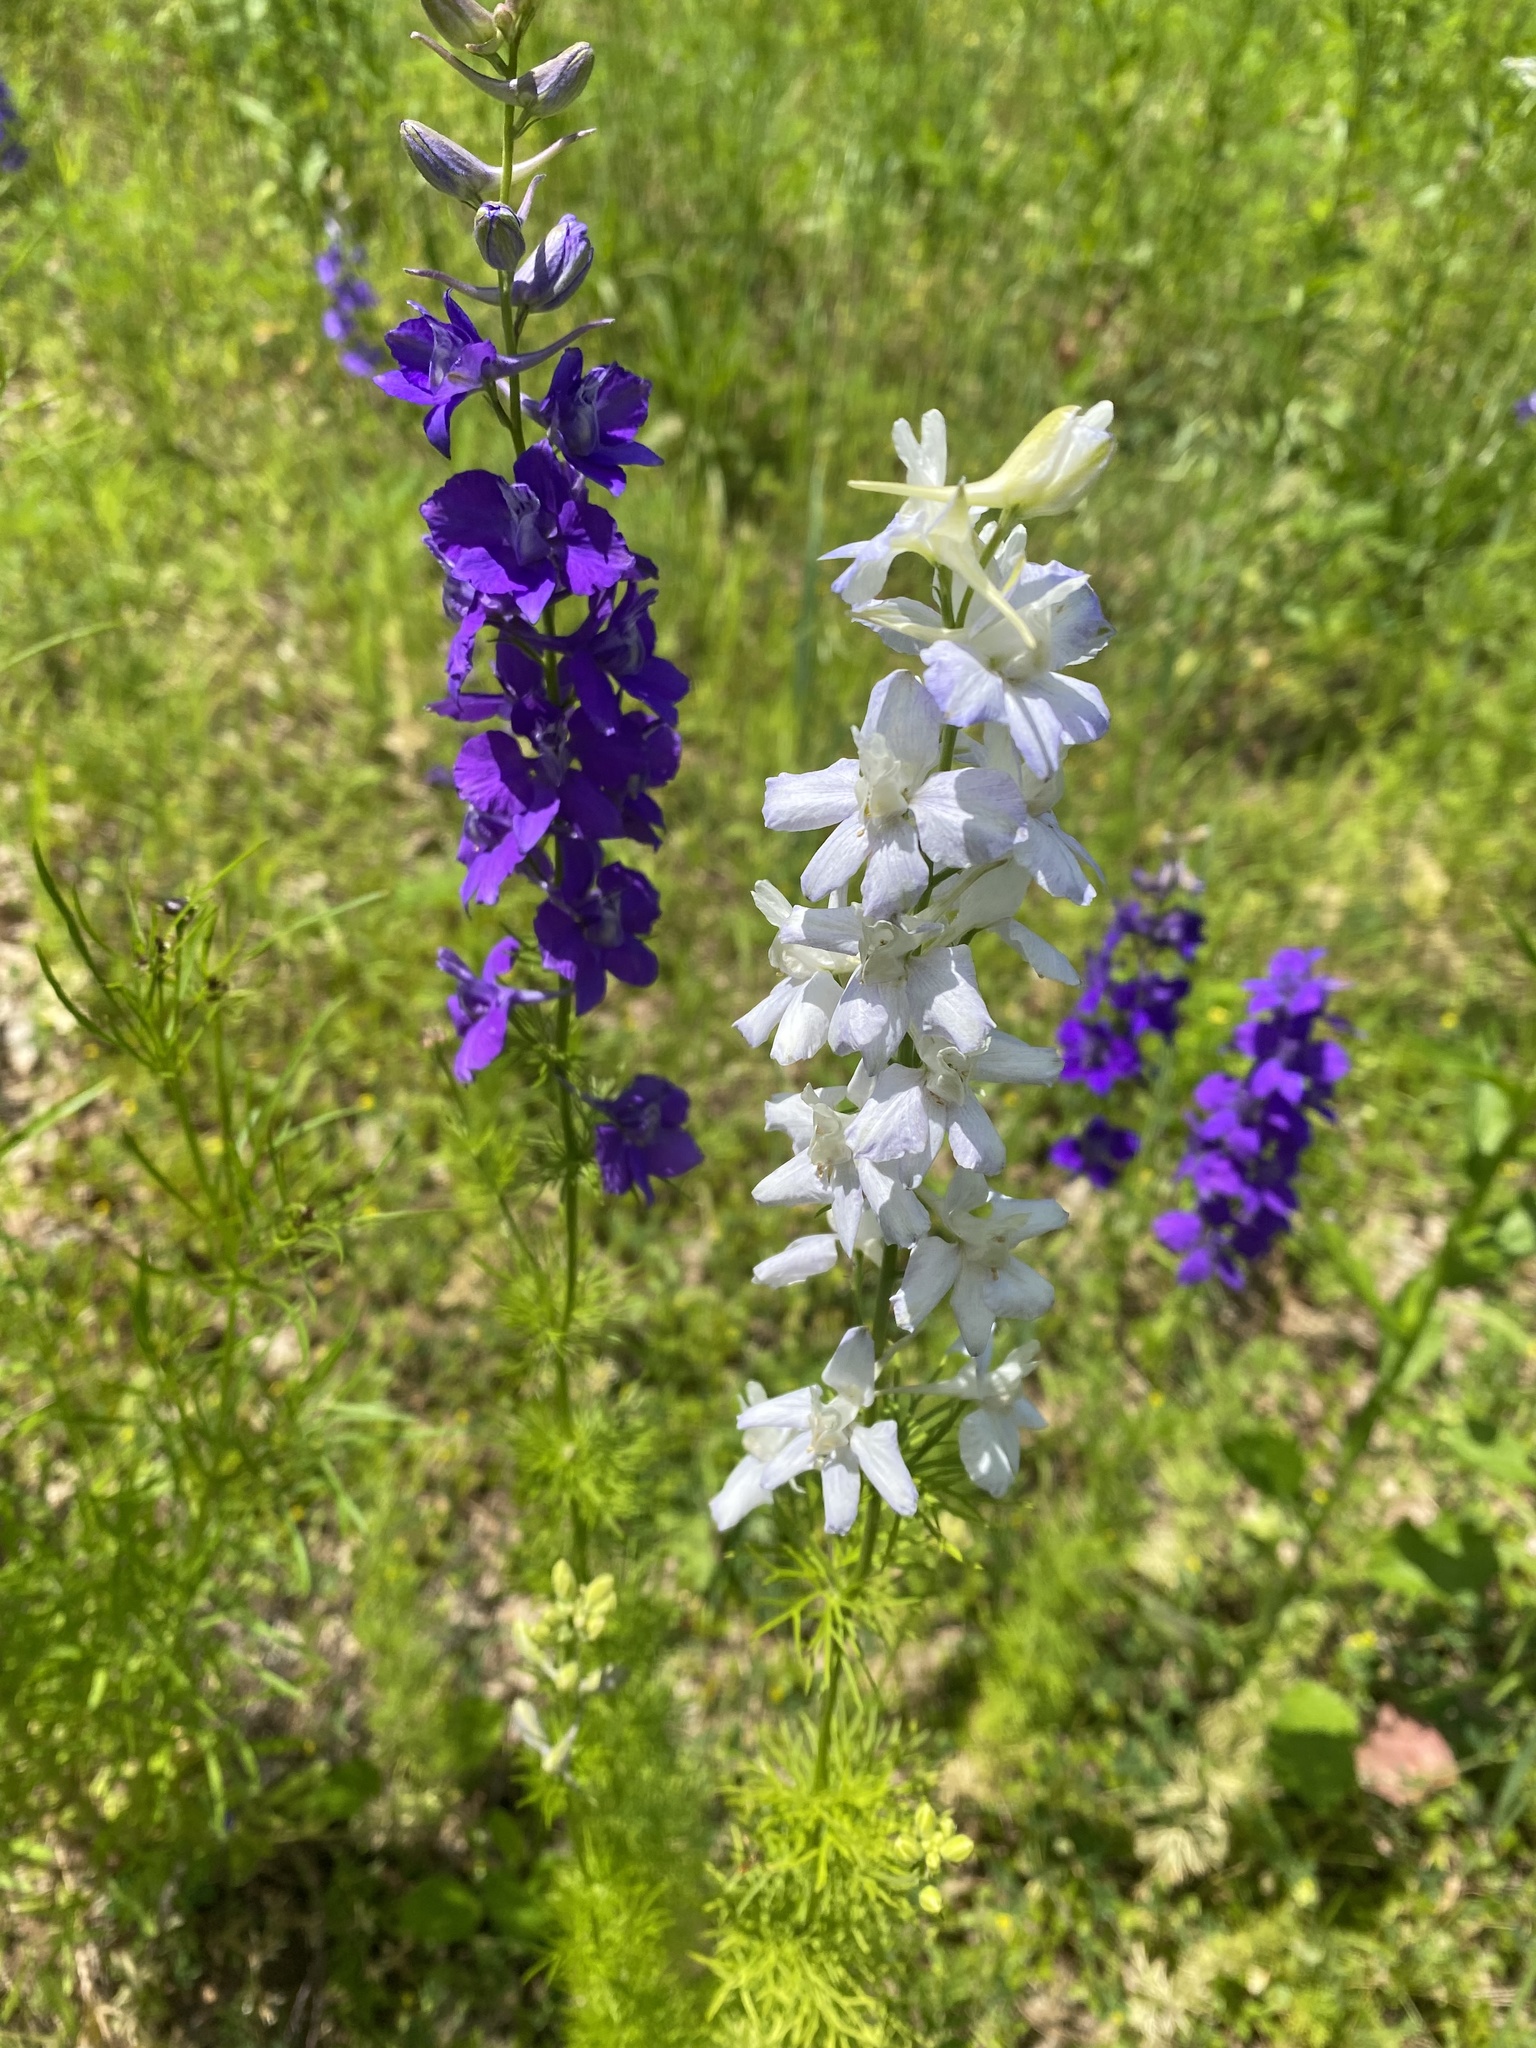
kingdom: Plantae
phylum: Tracheophyta
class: Magnoliopsida
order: Ranunculales
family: Ranunculaceae
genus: Delphinium
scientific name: Delphinium ajacis
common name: Doubtful knight's-spur
